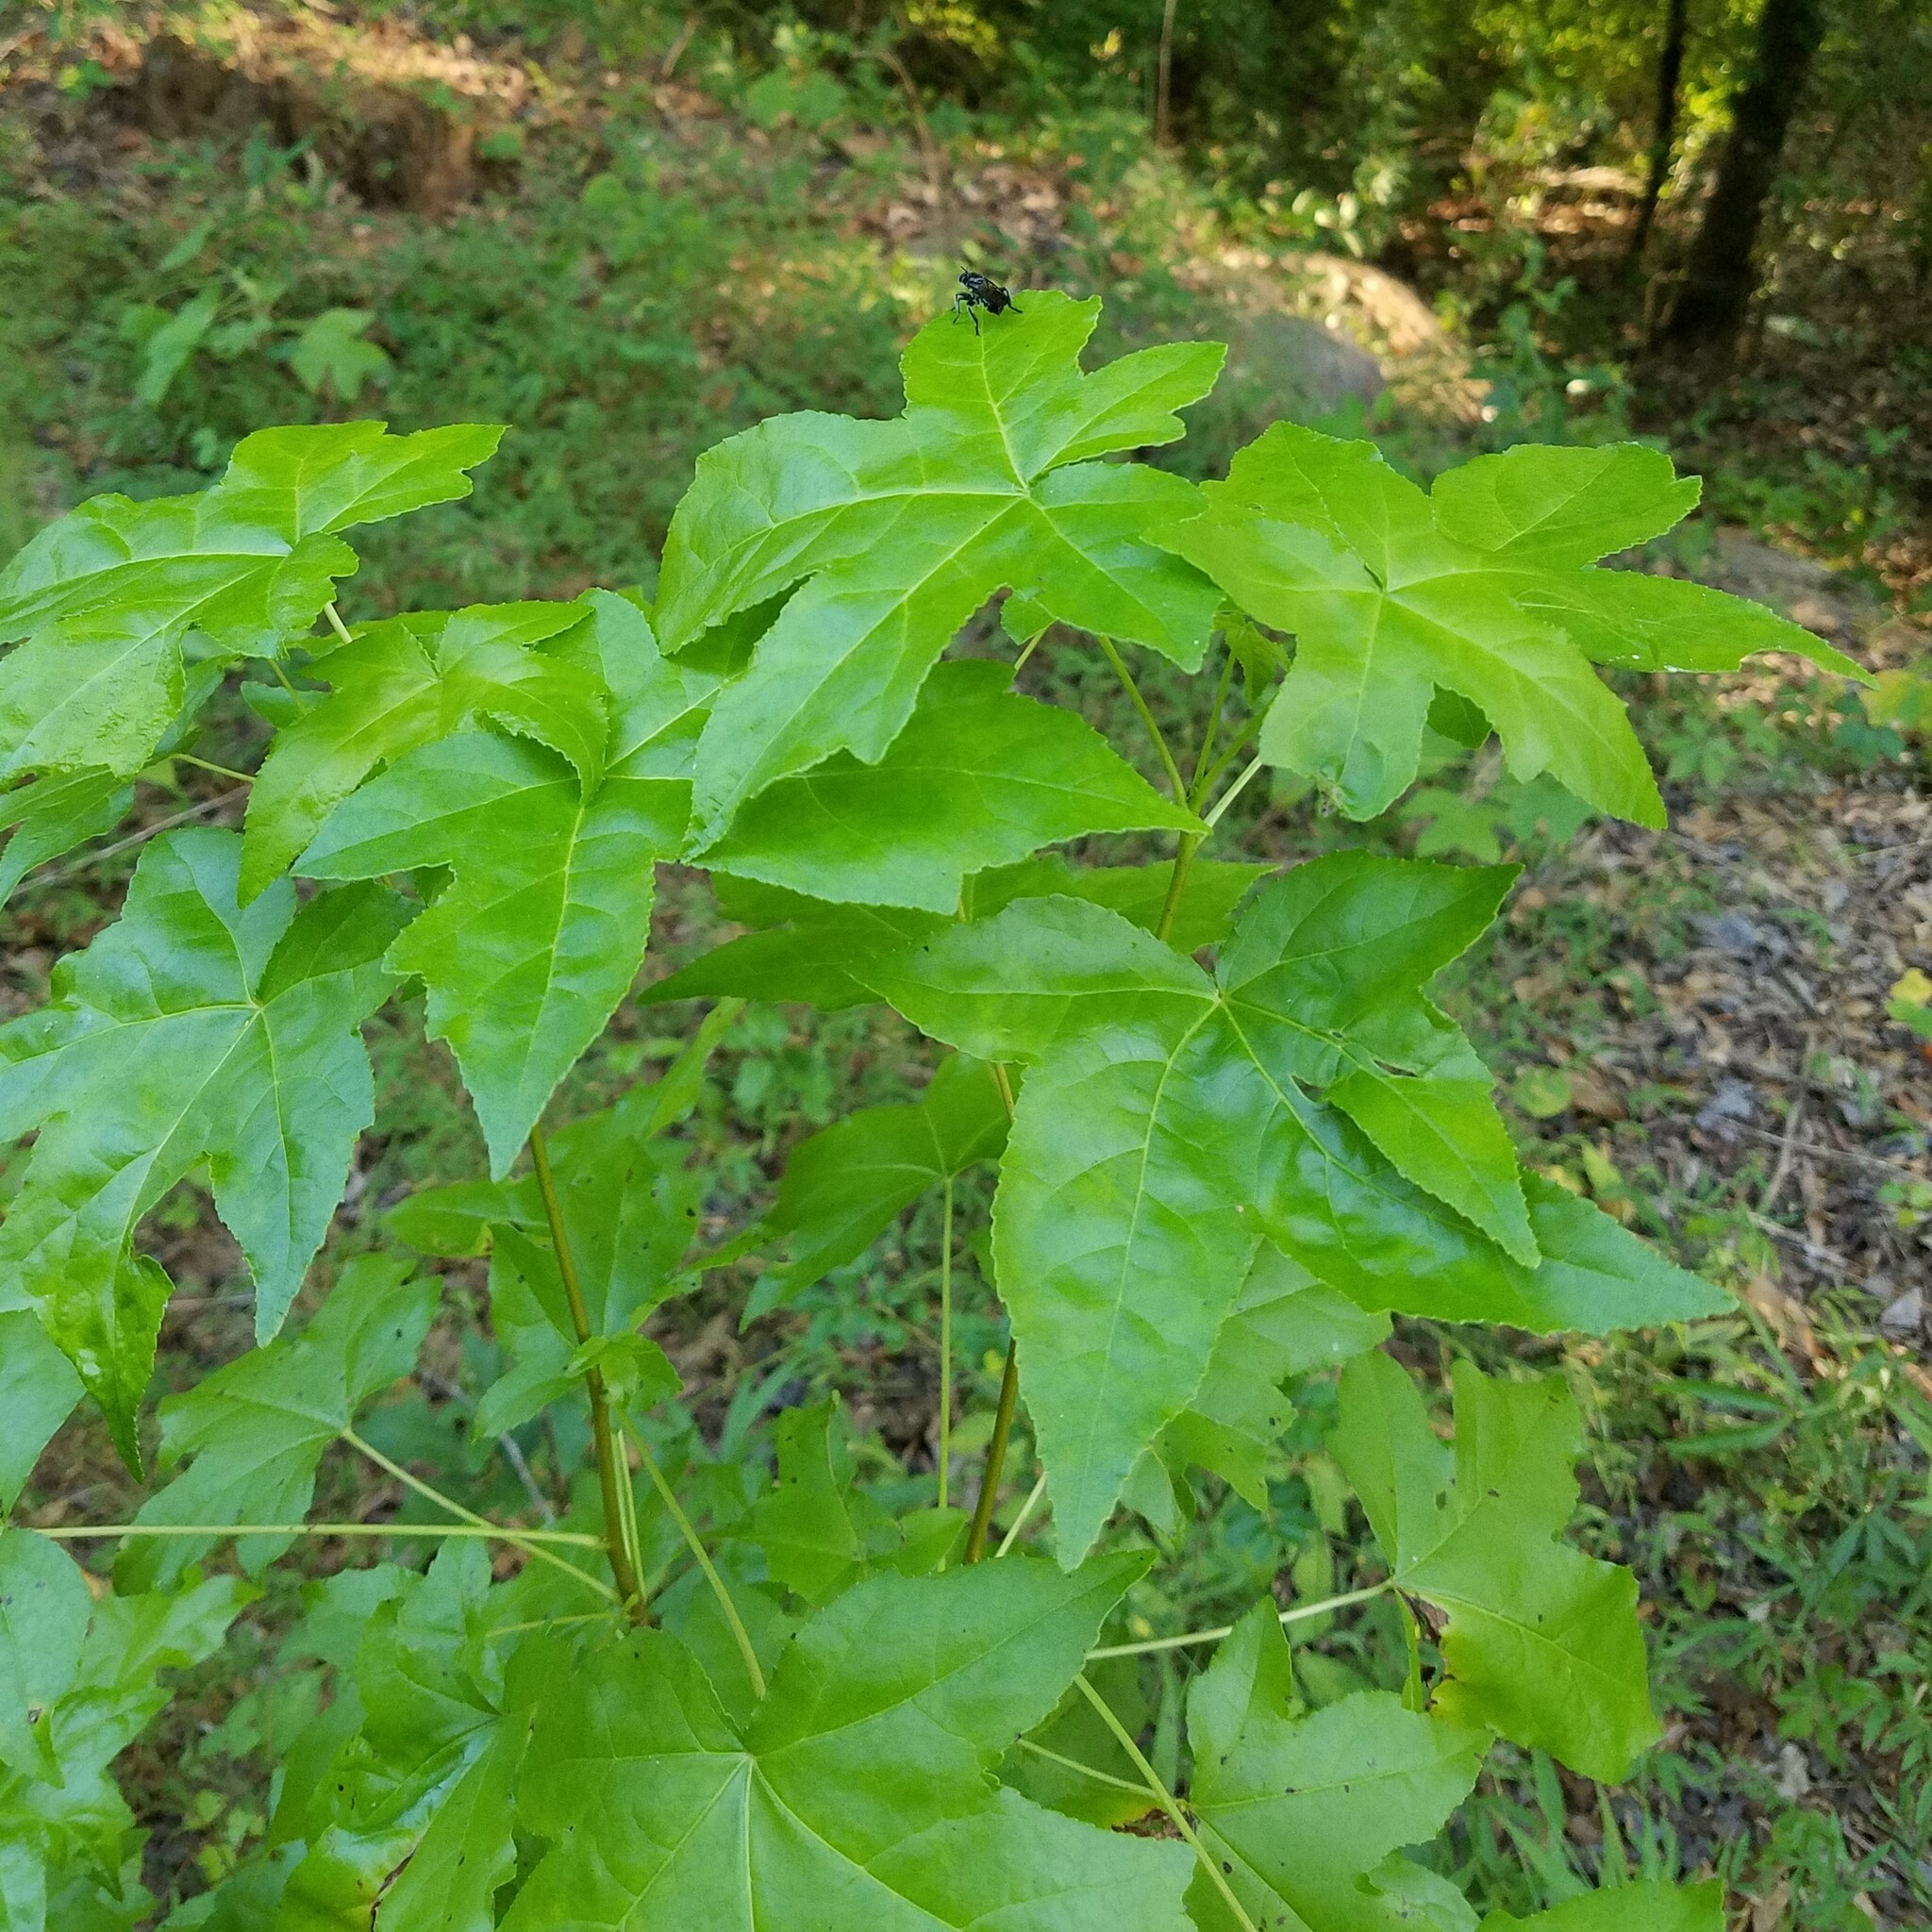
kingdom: Plantae
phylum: Tracheophyta
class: Magnoliopsida
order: Saxifragales
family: Altingiaceae
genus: Liquidambar
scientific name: Liquidambar styraciflua
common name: Sweet gum
